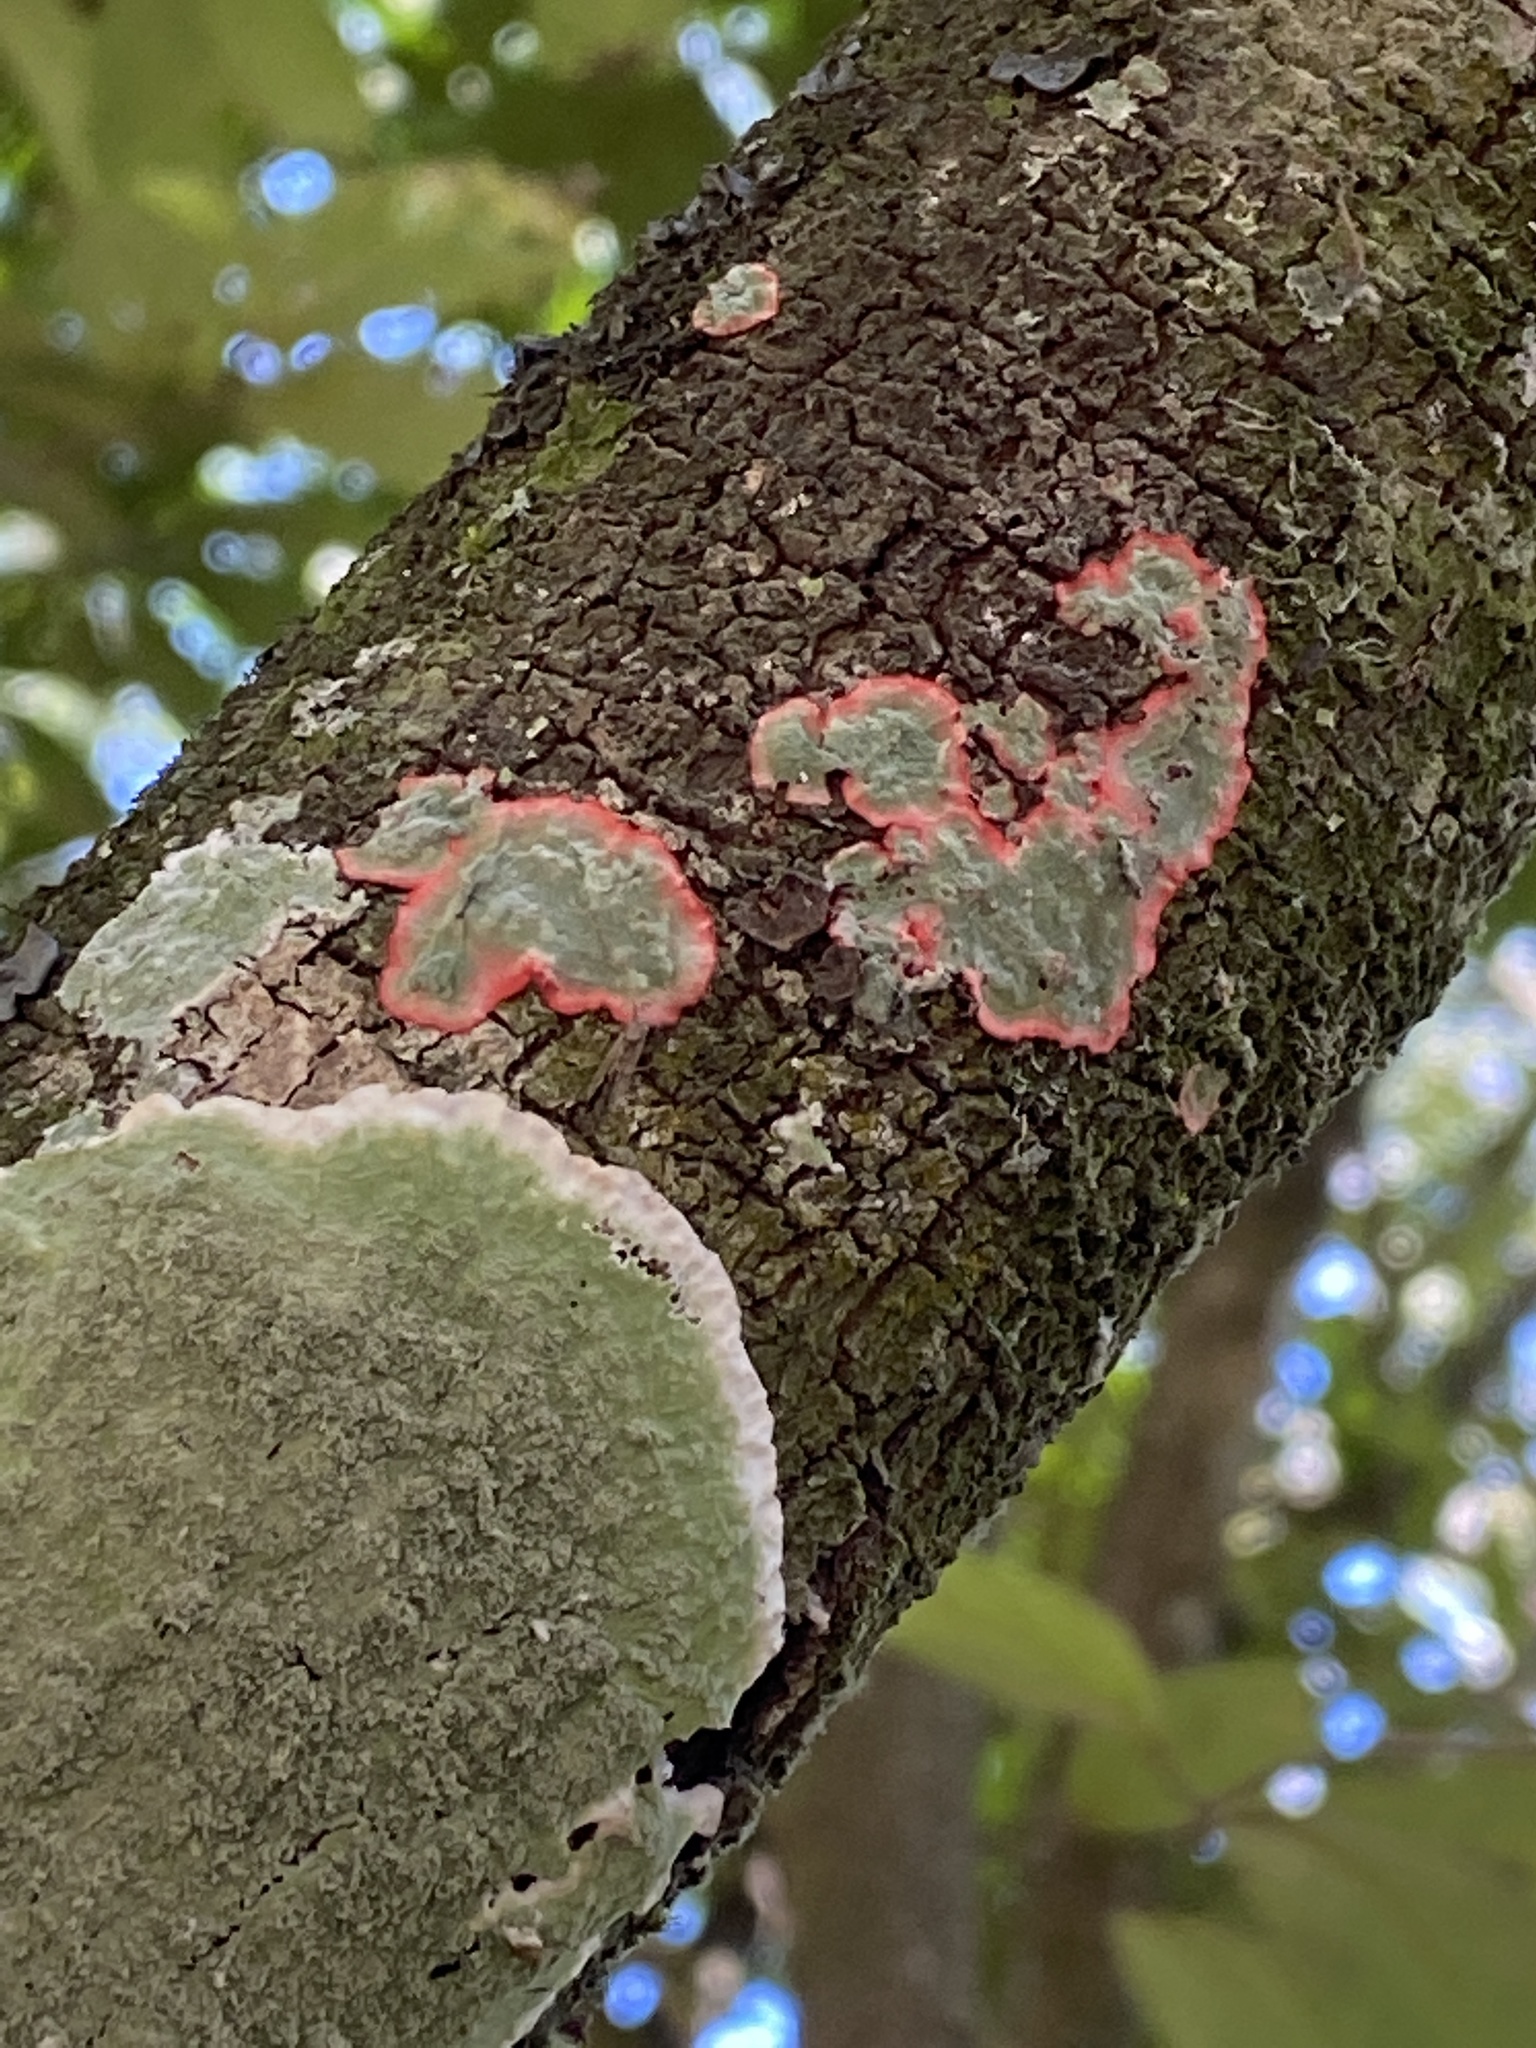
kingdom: Fungi
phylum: Ascomycota
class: Arthoniomycetes
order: Arthoniales
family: Arthoniaceae
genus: Herpothallon
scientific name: Herpothallon rubrocinctum
